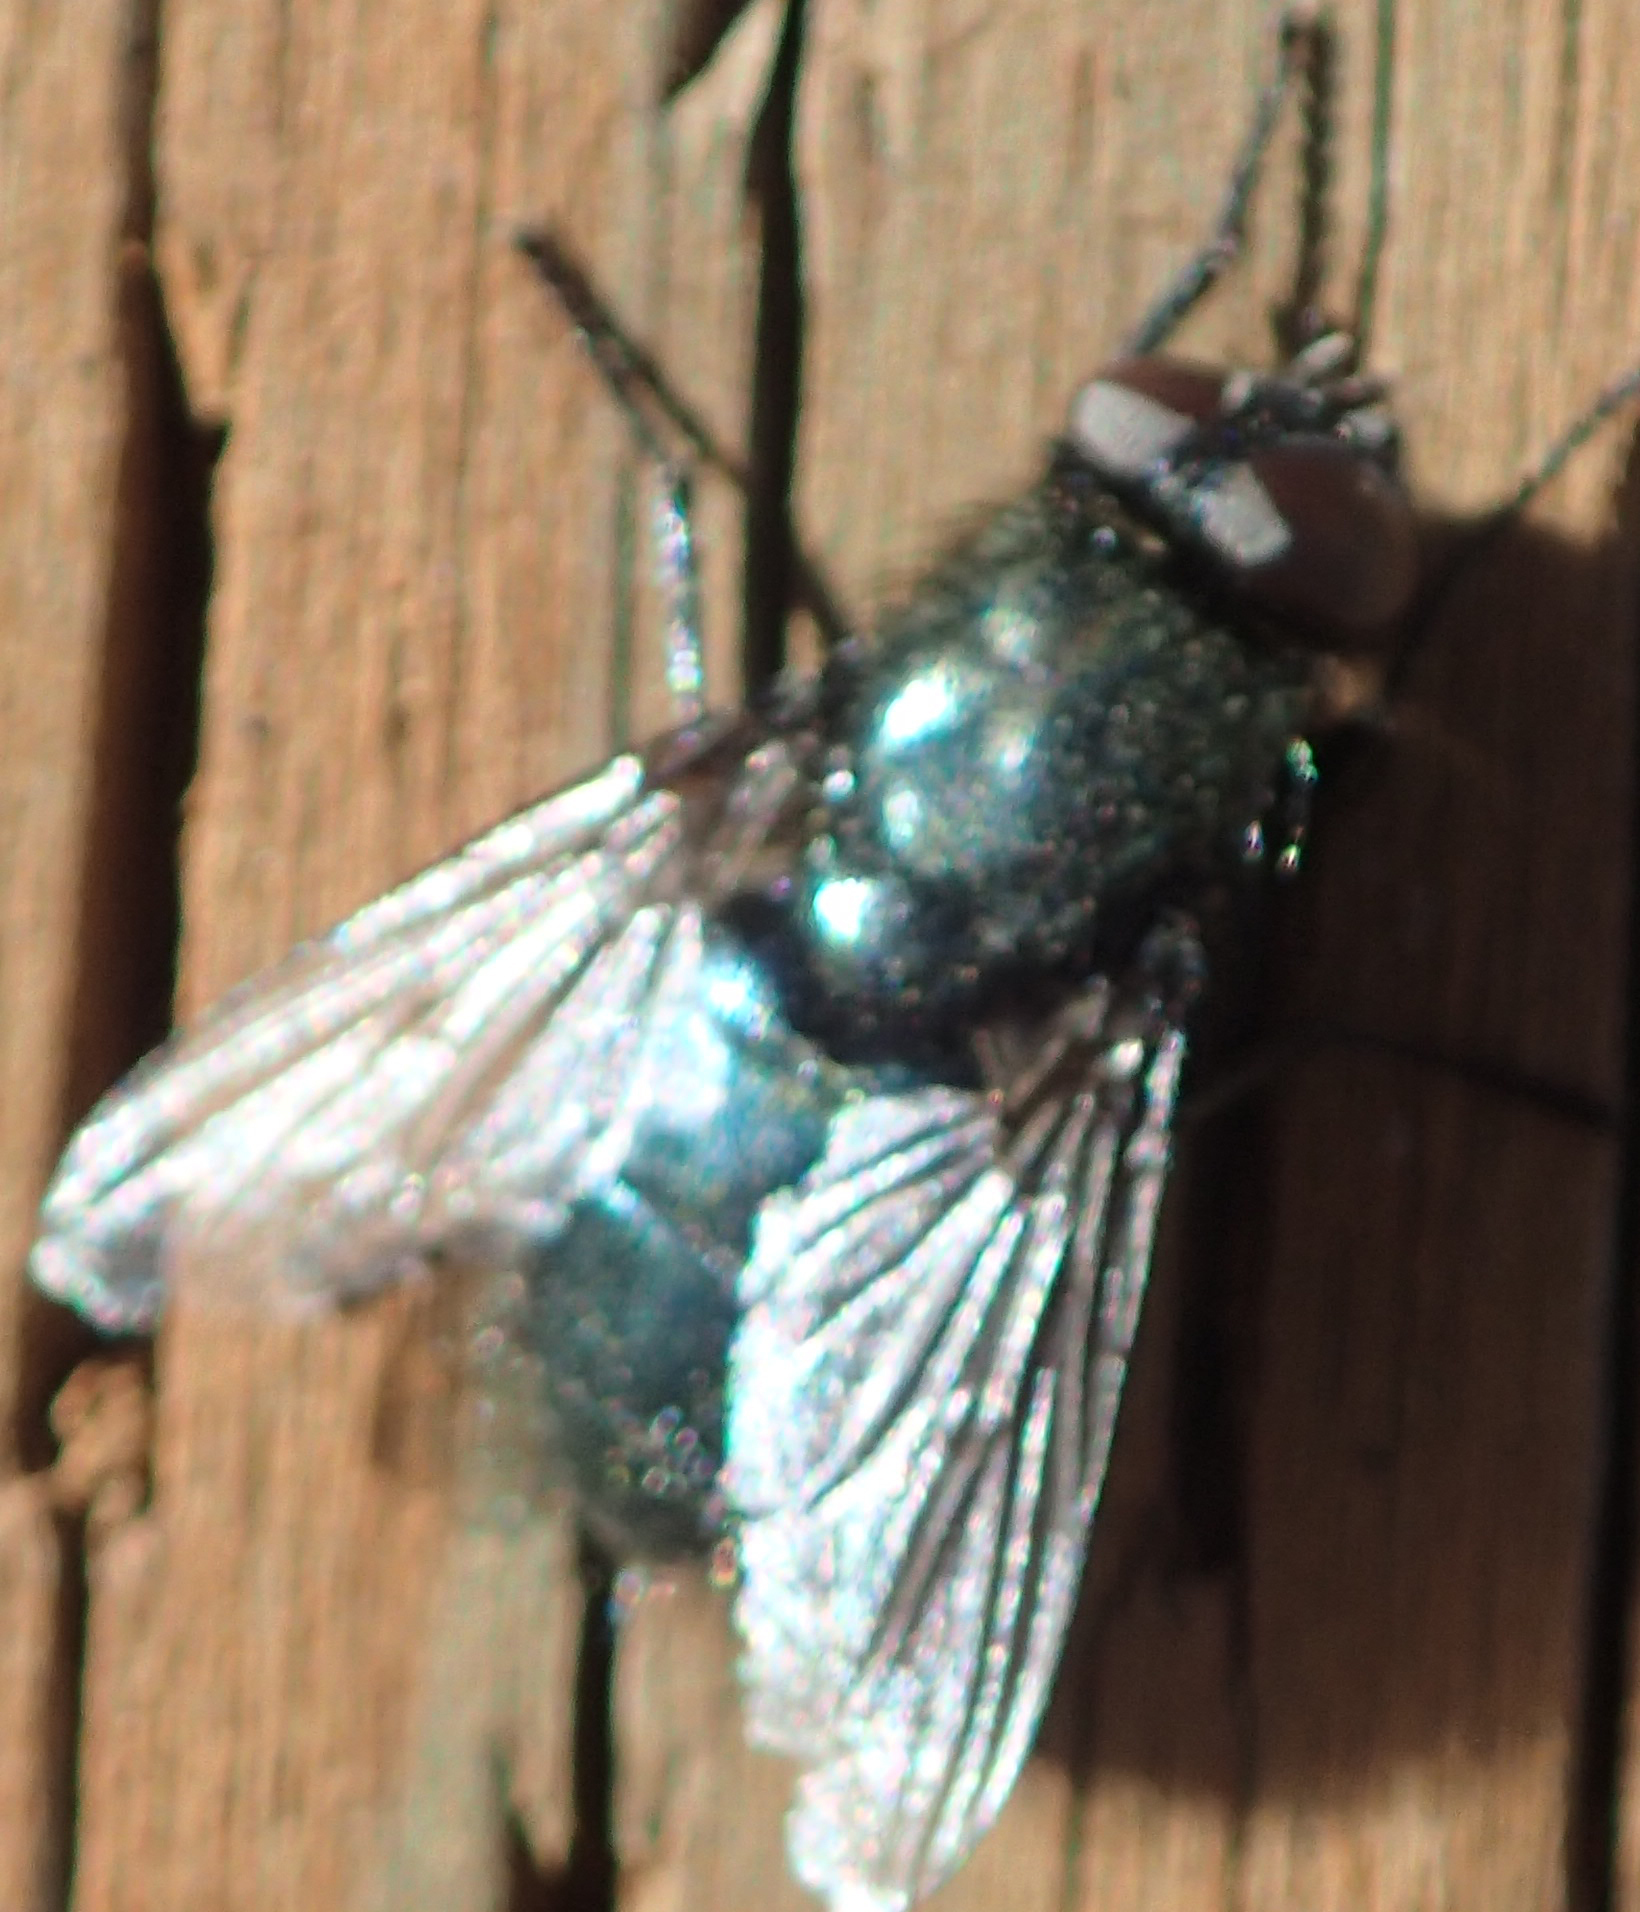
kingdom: Animalia
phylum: Arthropoda
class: Insecta
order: Diptera
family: Calliphoridae
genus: Protophormia
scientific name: Protophormia terraenovae
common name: Blackbottle
